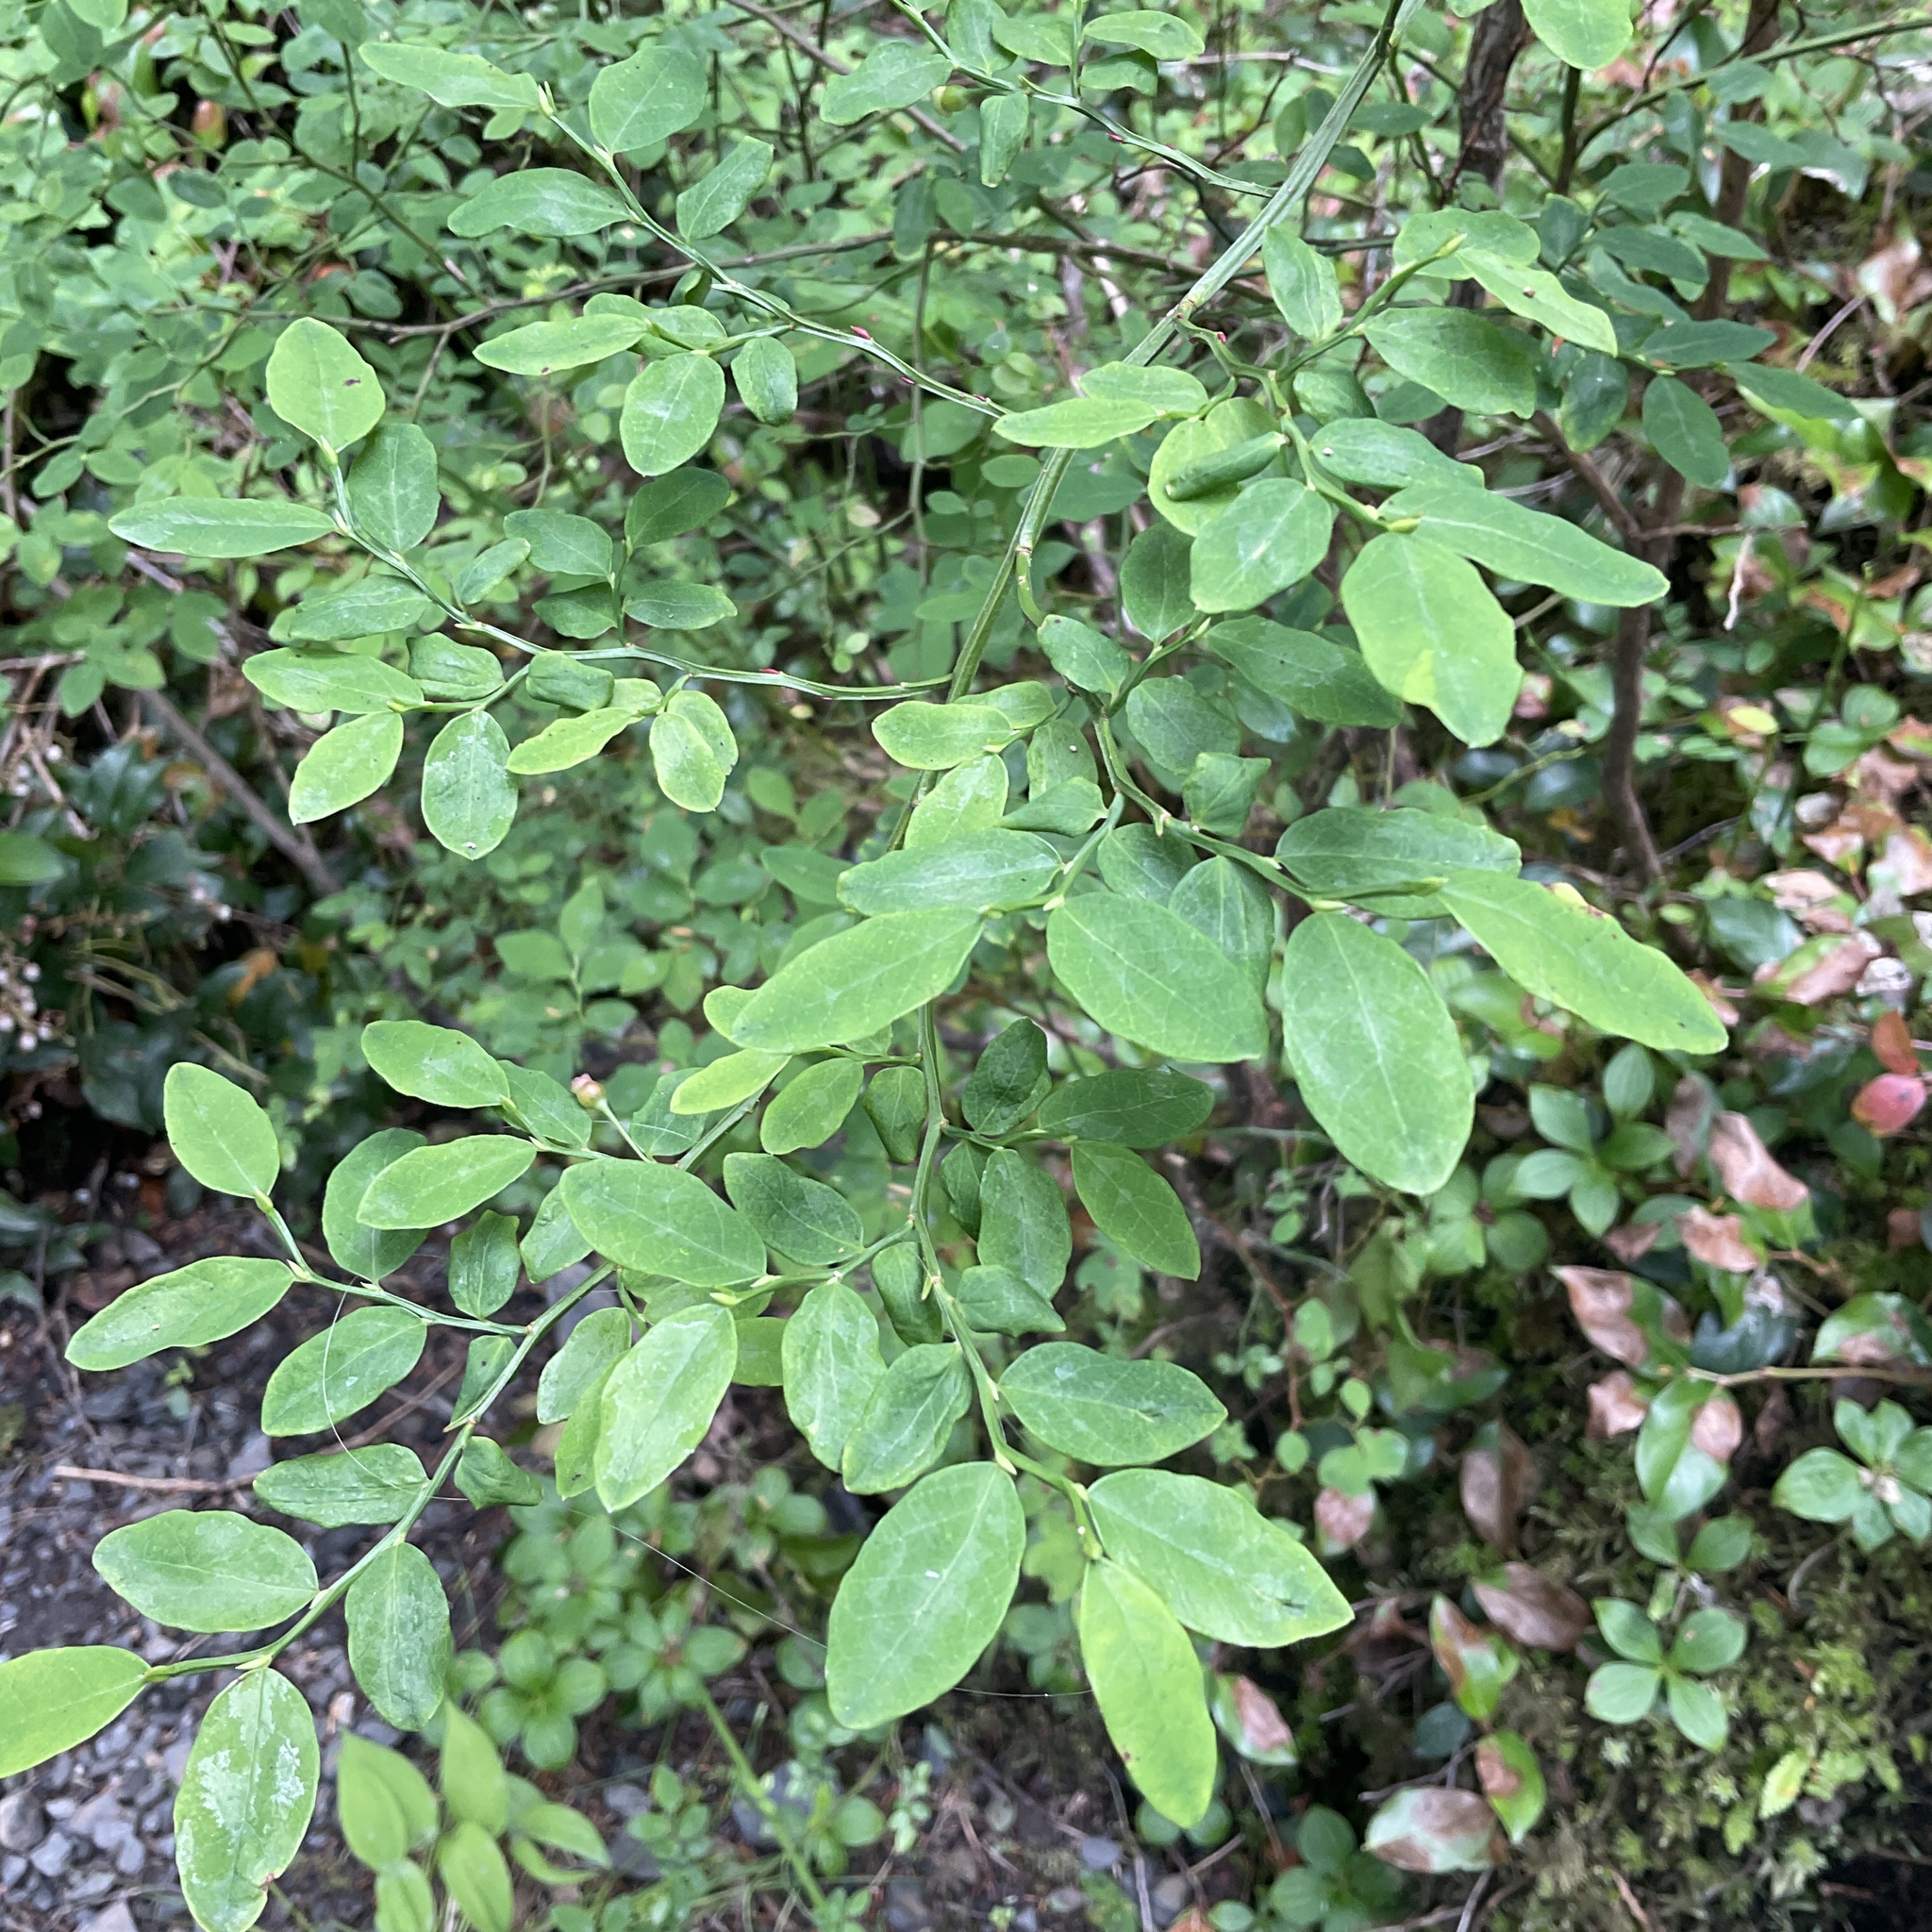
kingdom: Plantae
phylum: Tracheophyta
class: Magnoliopsida
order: Ericales
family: Ericaceae
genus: Vaccinium
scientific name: Vaccinium parvifolium
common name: Red-huckleberry
